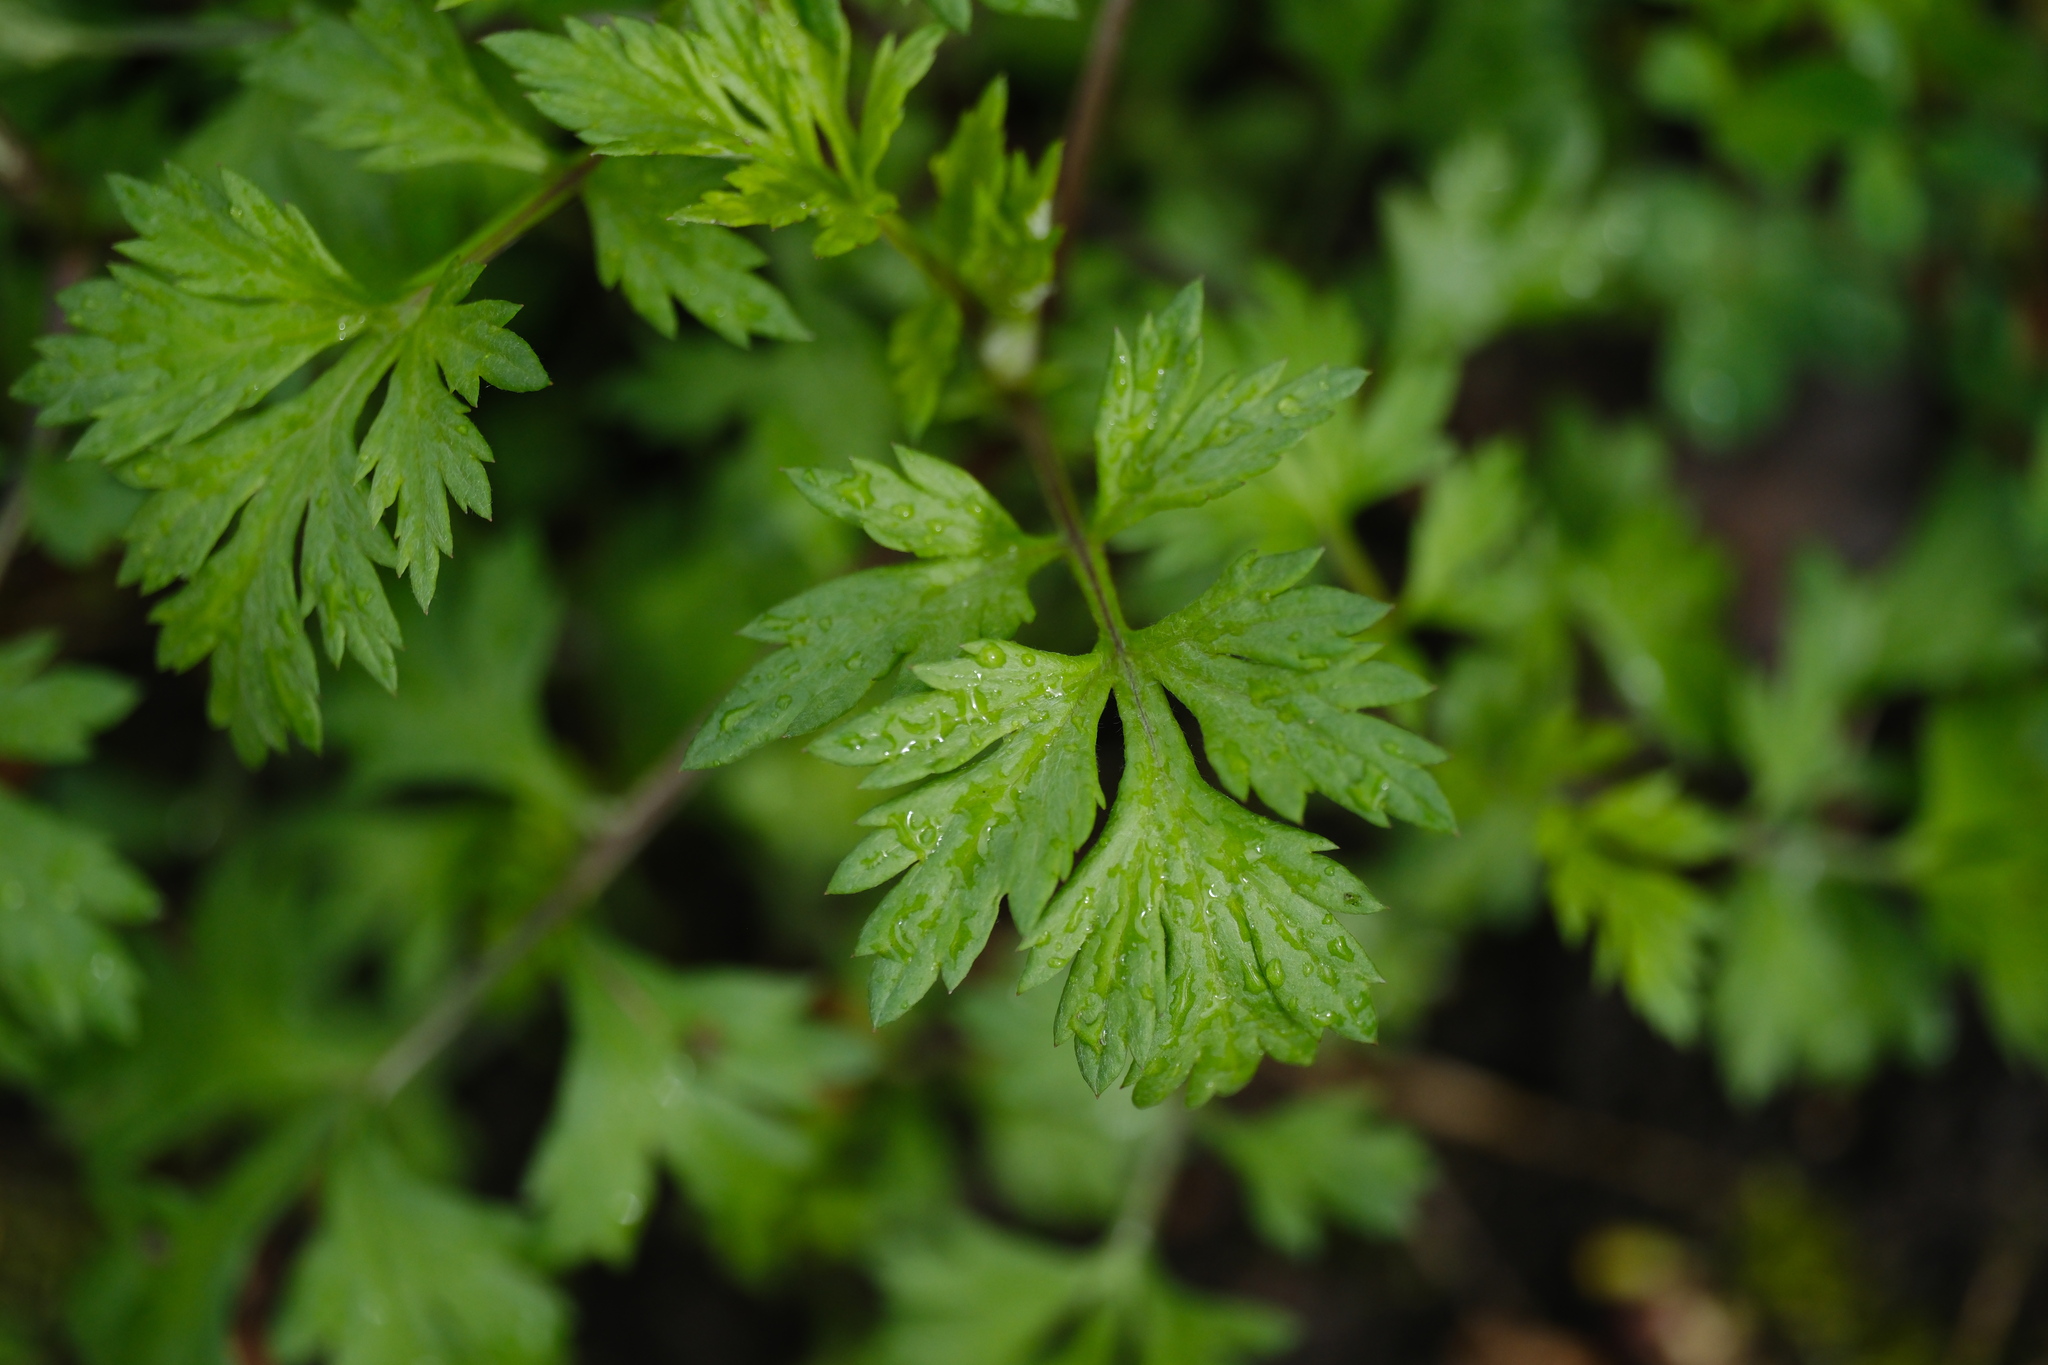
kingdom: Plantae
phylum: Tracheophyta
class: Magnoliopsida
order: Asterales
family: Asteraceae
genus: Artemisia
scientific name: Artemisia vulgaris
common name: Mugwort
